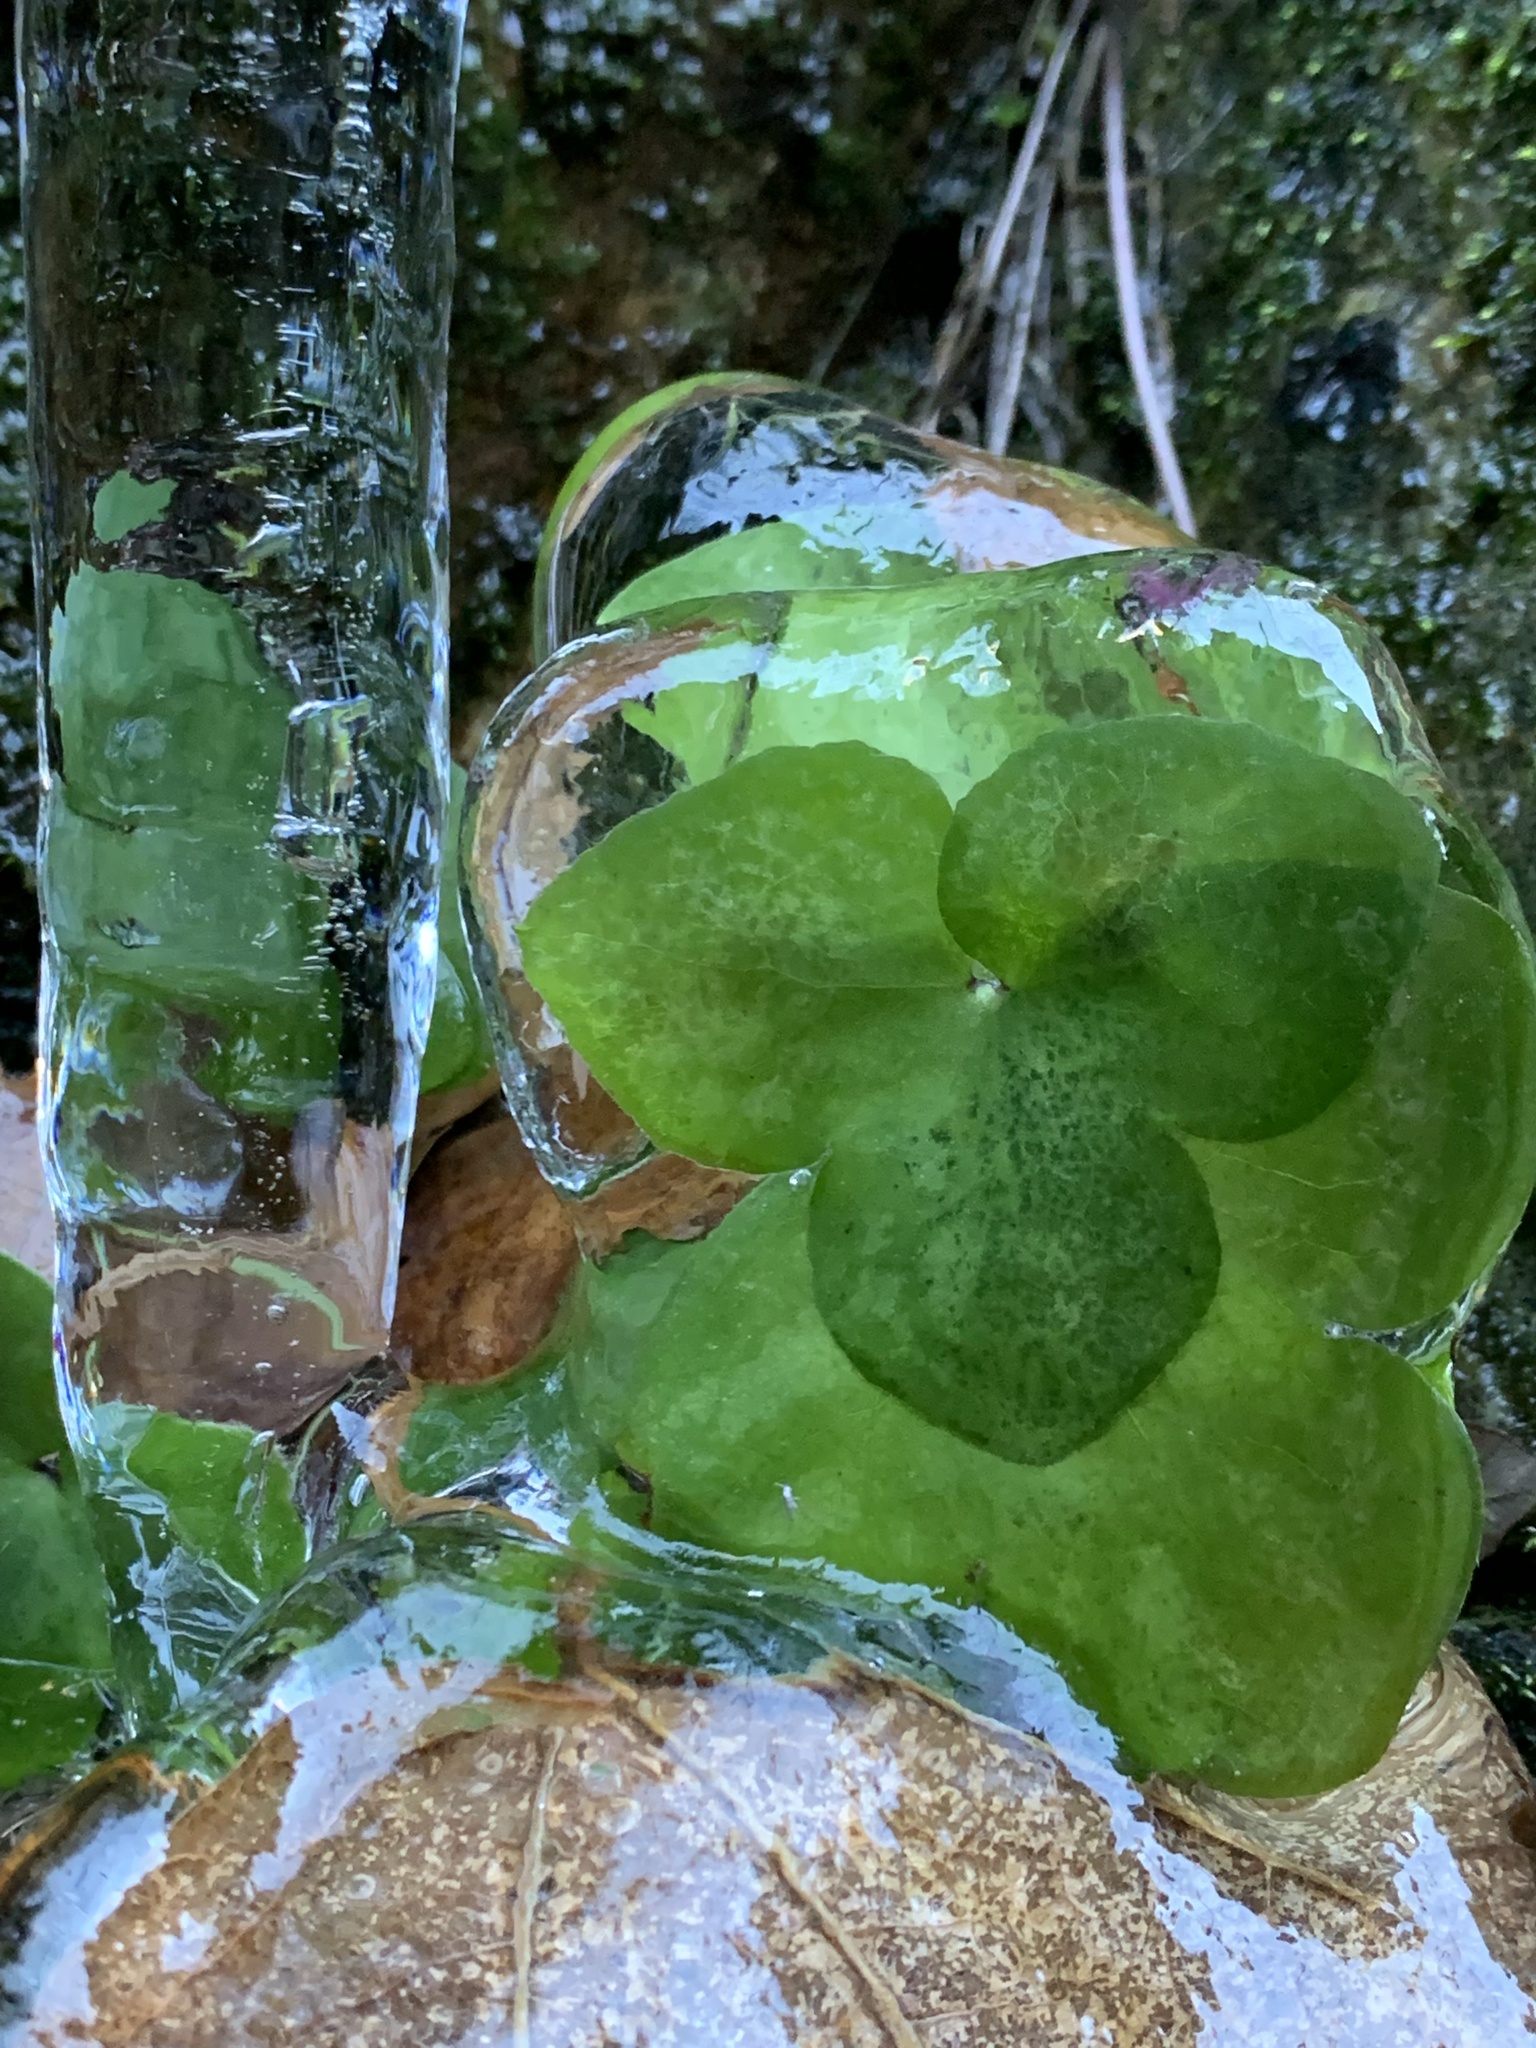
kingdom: Plantae
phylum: Tracheophyta
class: Magnoliopsida
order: Ranunculales
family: Ranunculaceae
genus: Hepatica
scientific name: Hepatica nobilis
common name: Liverleaf
